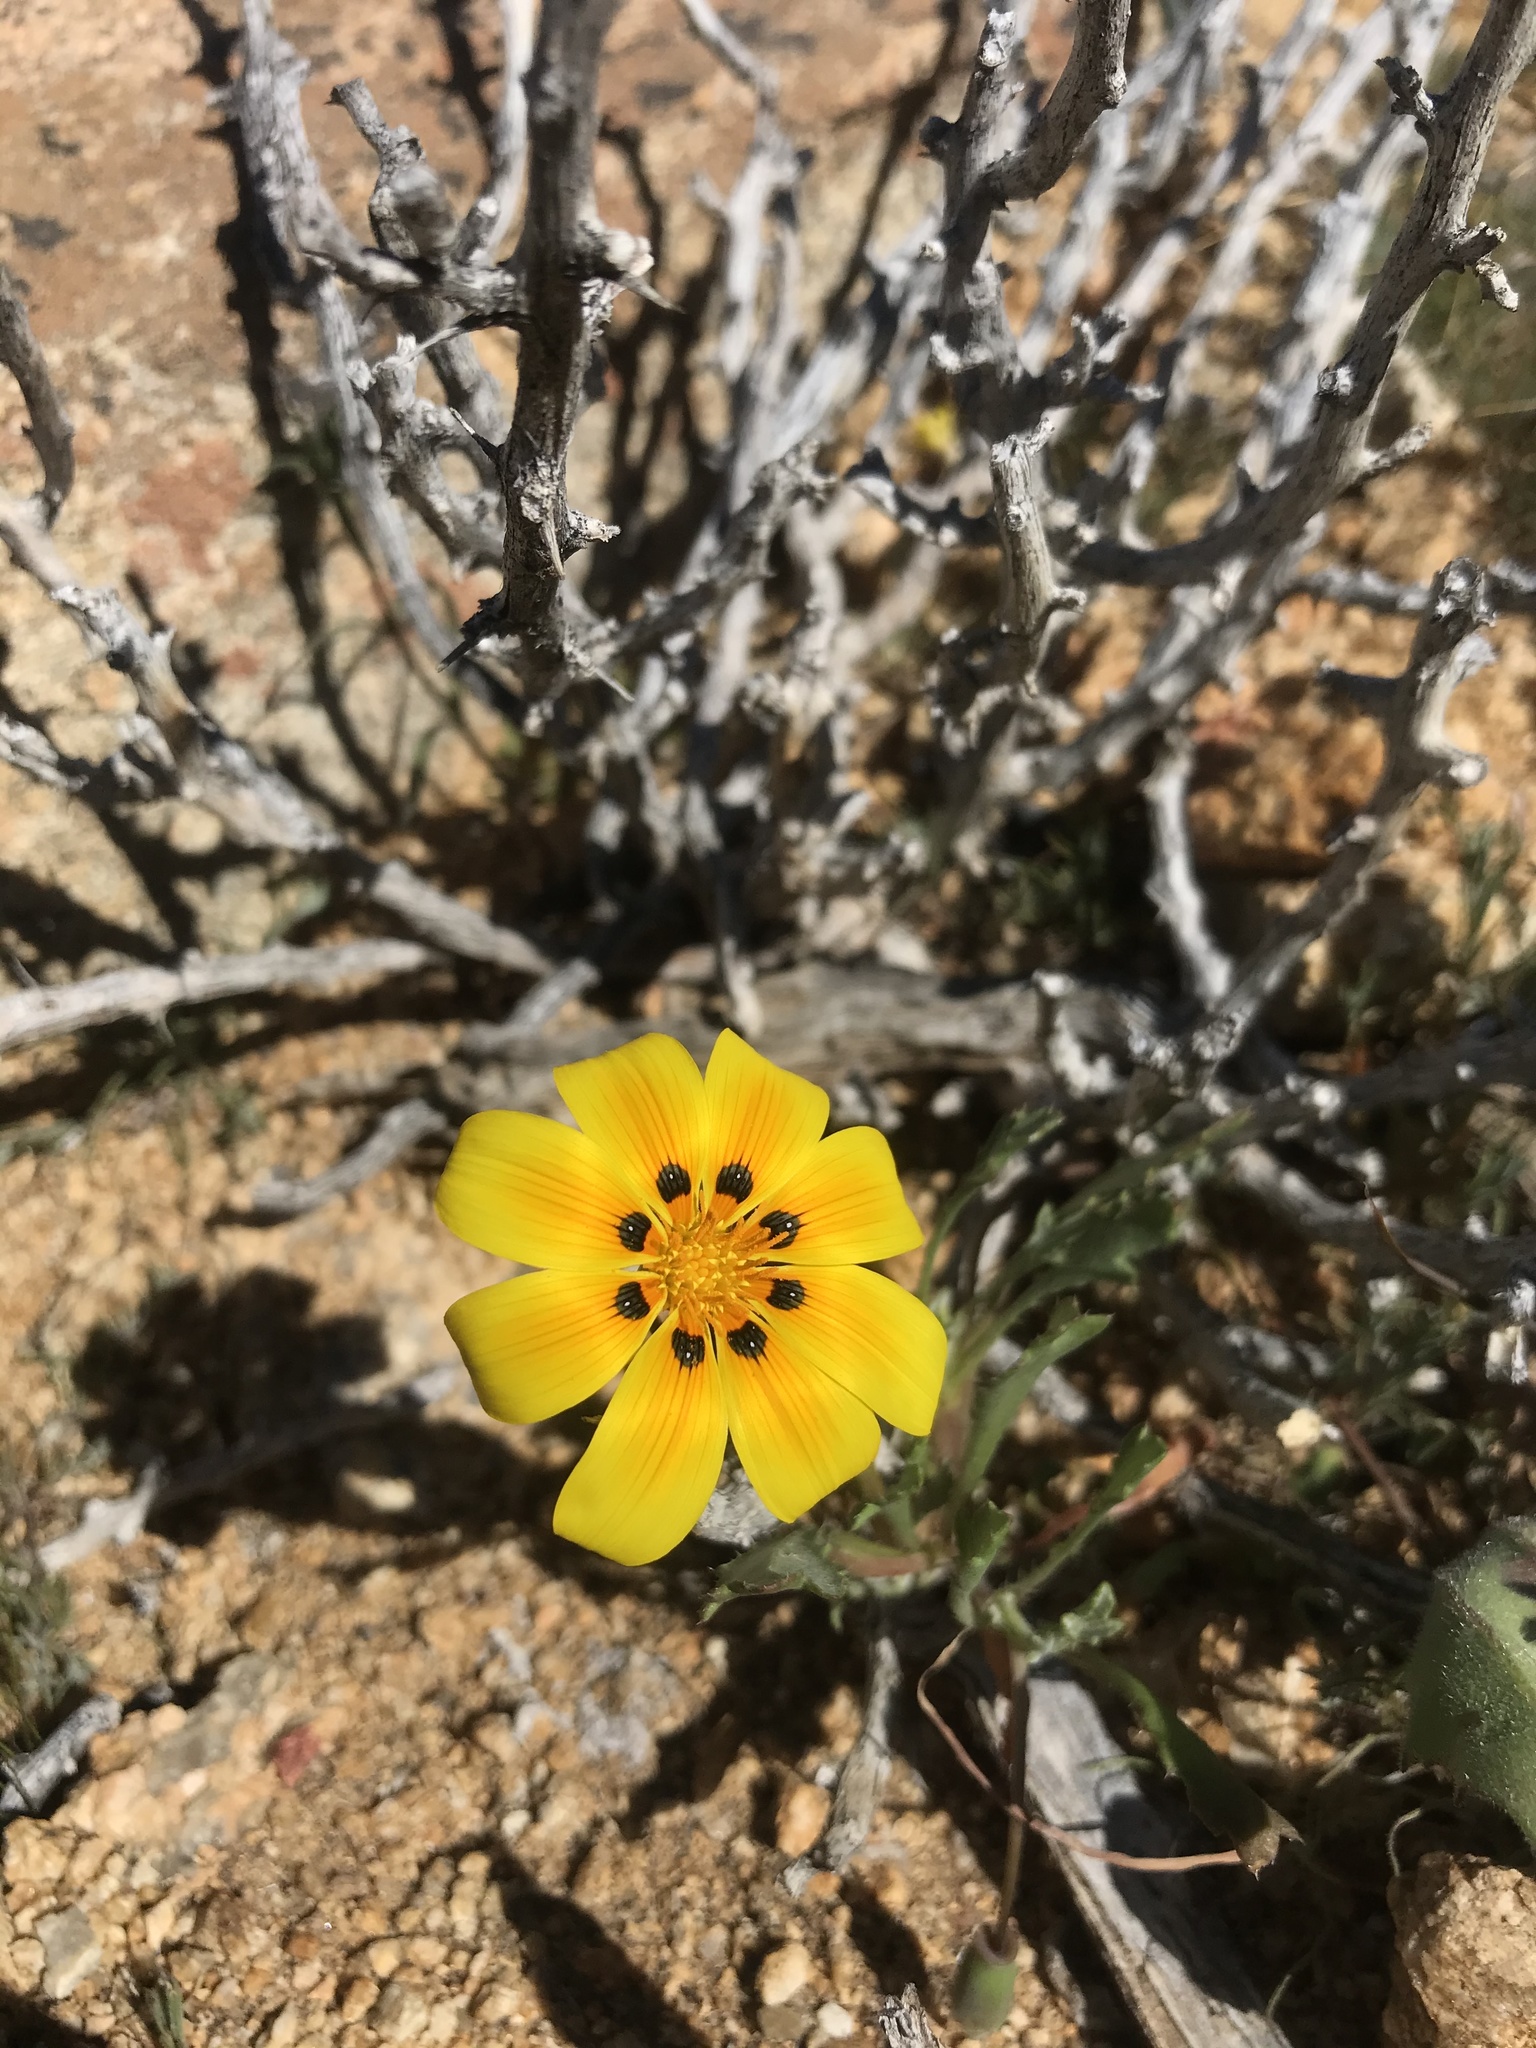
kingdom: Plantae
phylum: Tracheophyta
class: Magnoliopsida
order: Asterales
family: Asteraceae
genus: Gazania
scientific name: Gazania lichtensteinii
